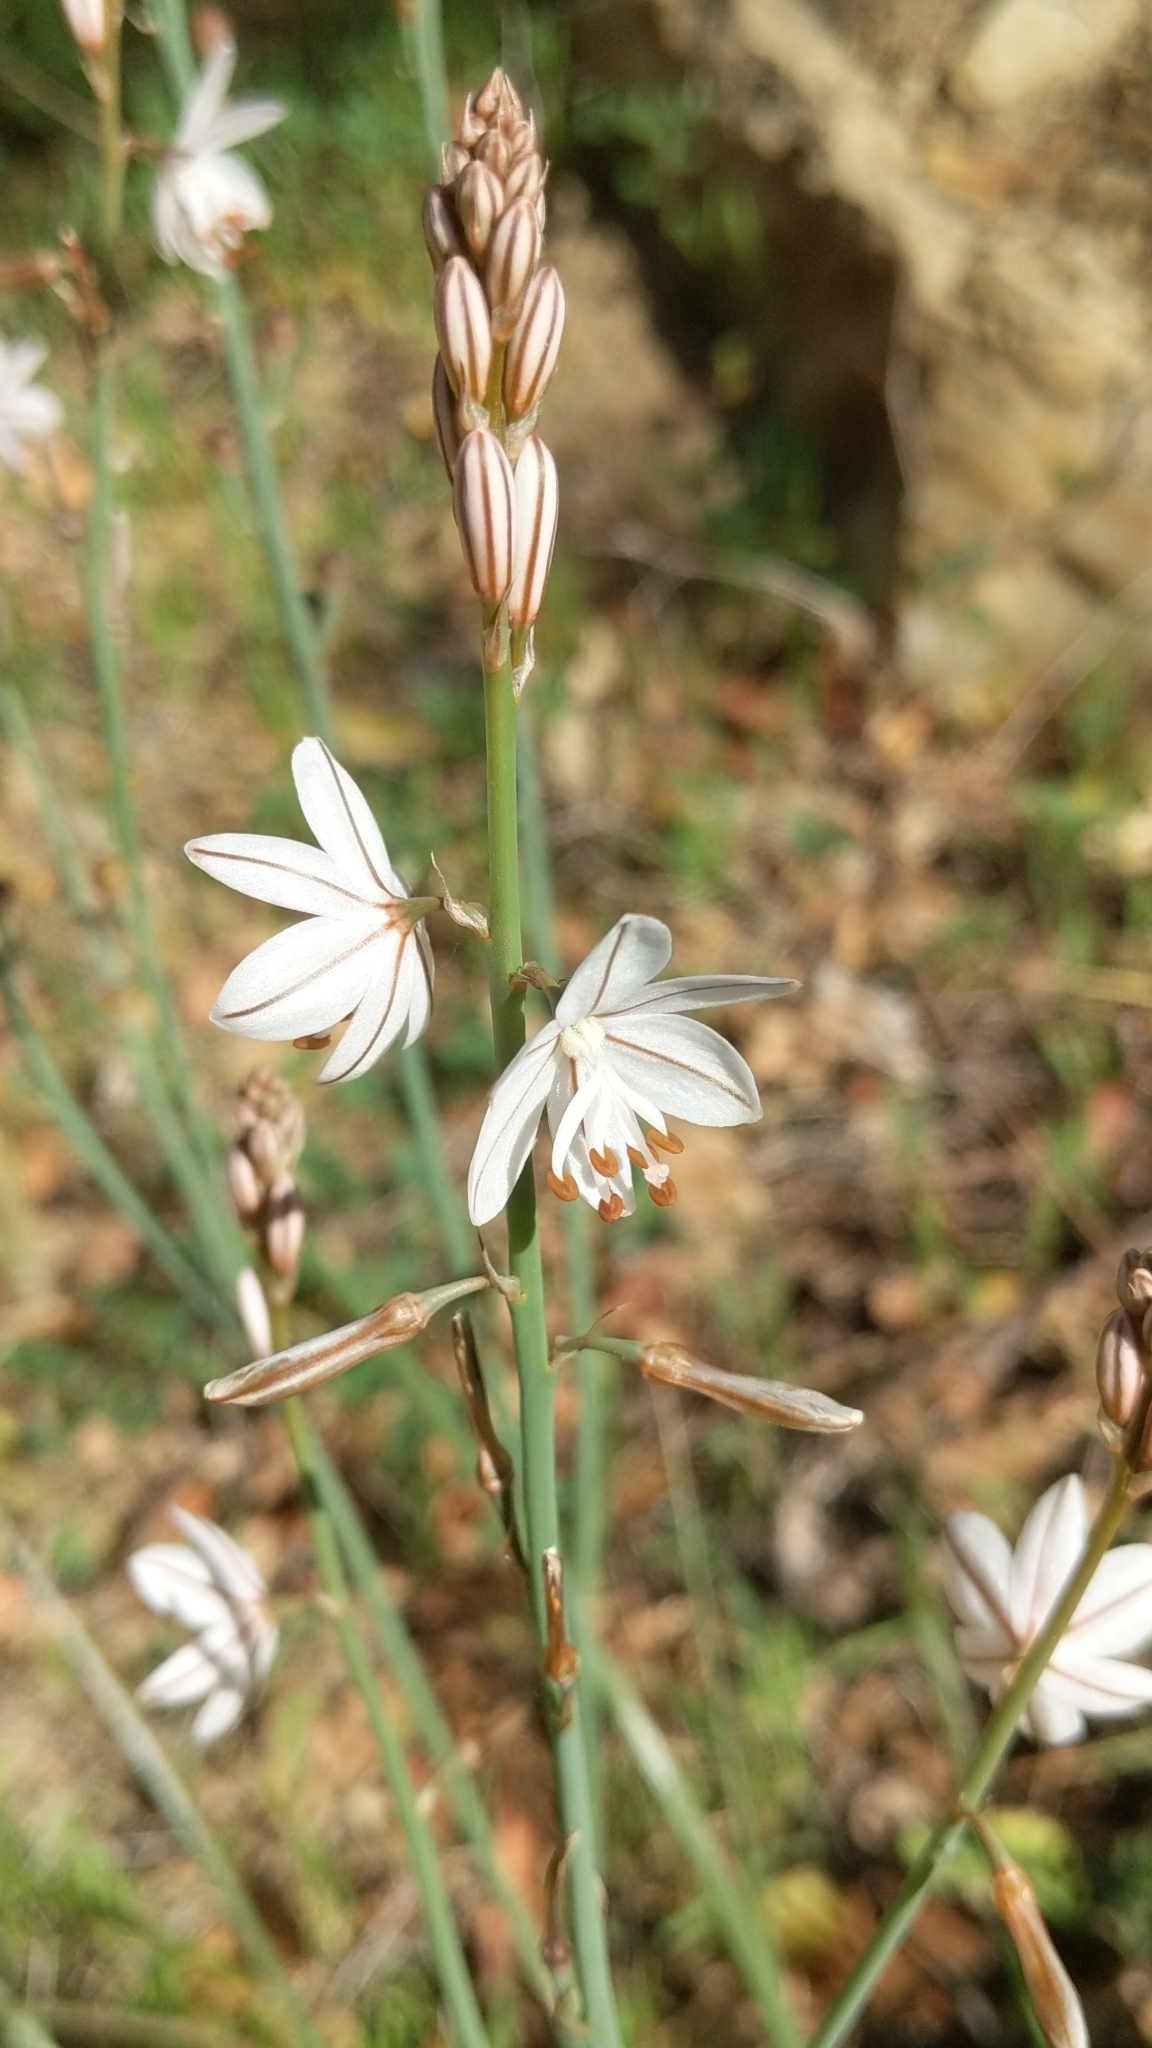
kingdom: Plantae
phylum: Tracheophyta
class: Liliopsida
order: Asparagales
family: Asphodelaceae
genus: Asphodelus
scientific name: Asphodelus fistulosus
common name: Onionweed
